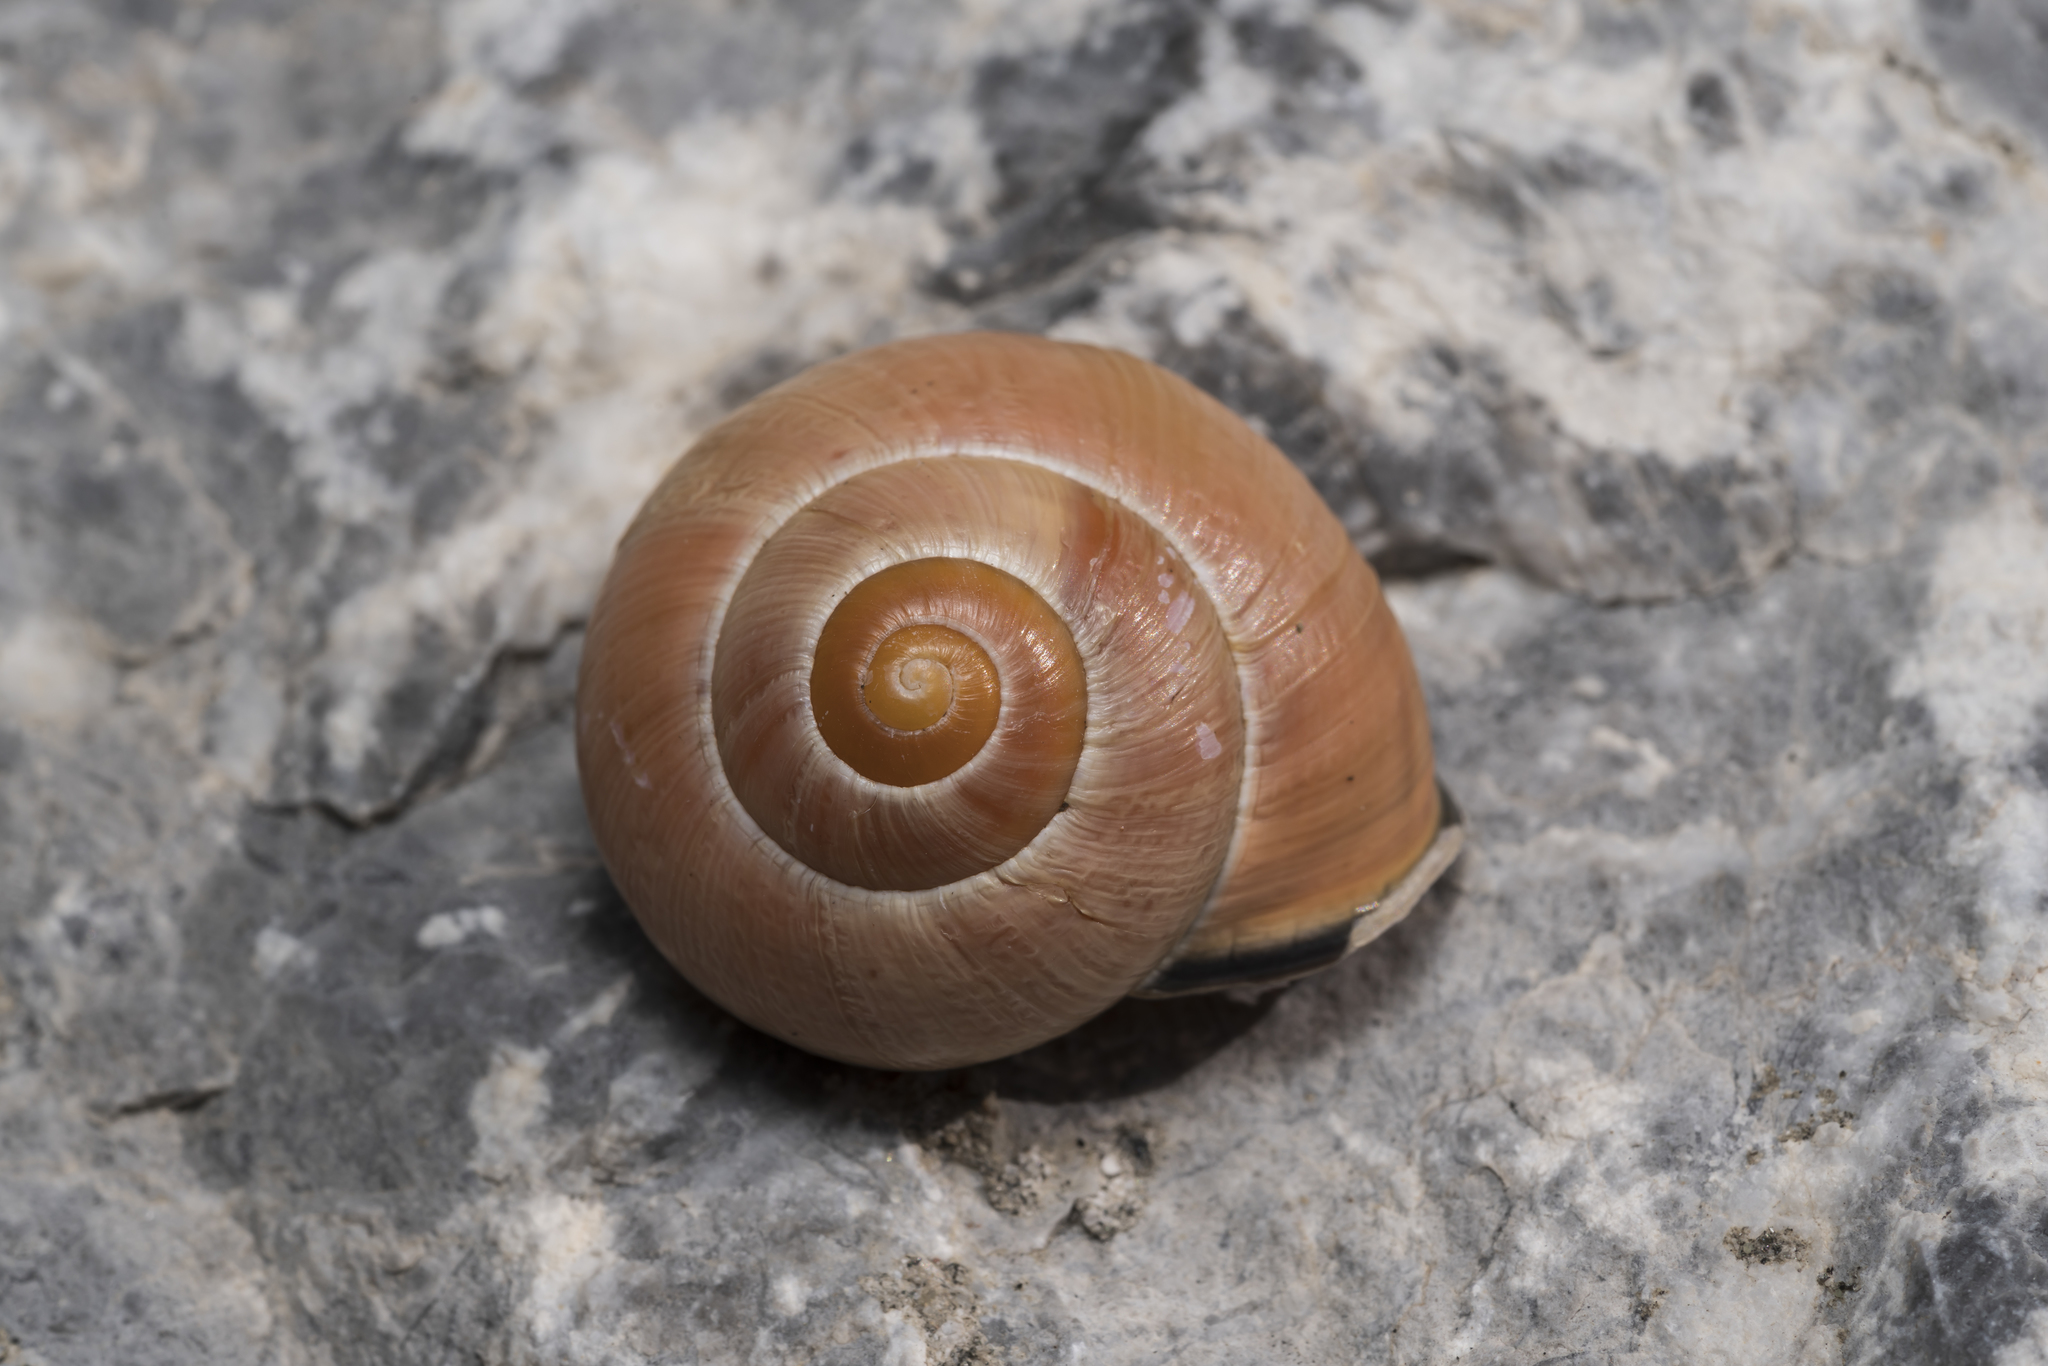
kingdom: Animalia
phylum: Mollusca
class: Gastropoda
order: Stylommatophora
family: Helicidae
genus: Cepaea
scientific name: Cepaea nemoralis
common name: Grovesnail
